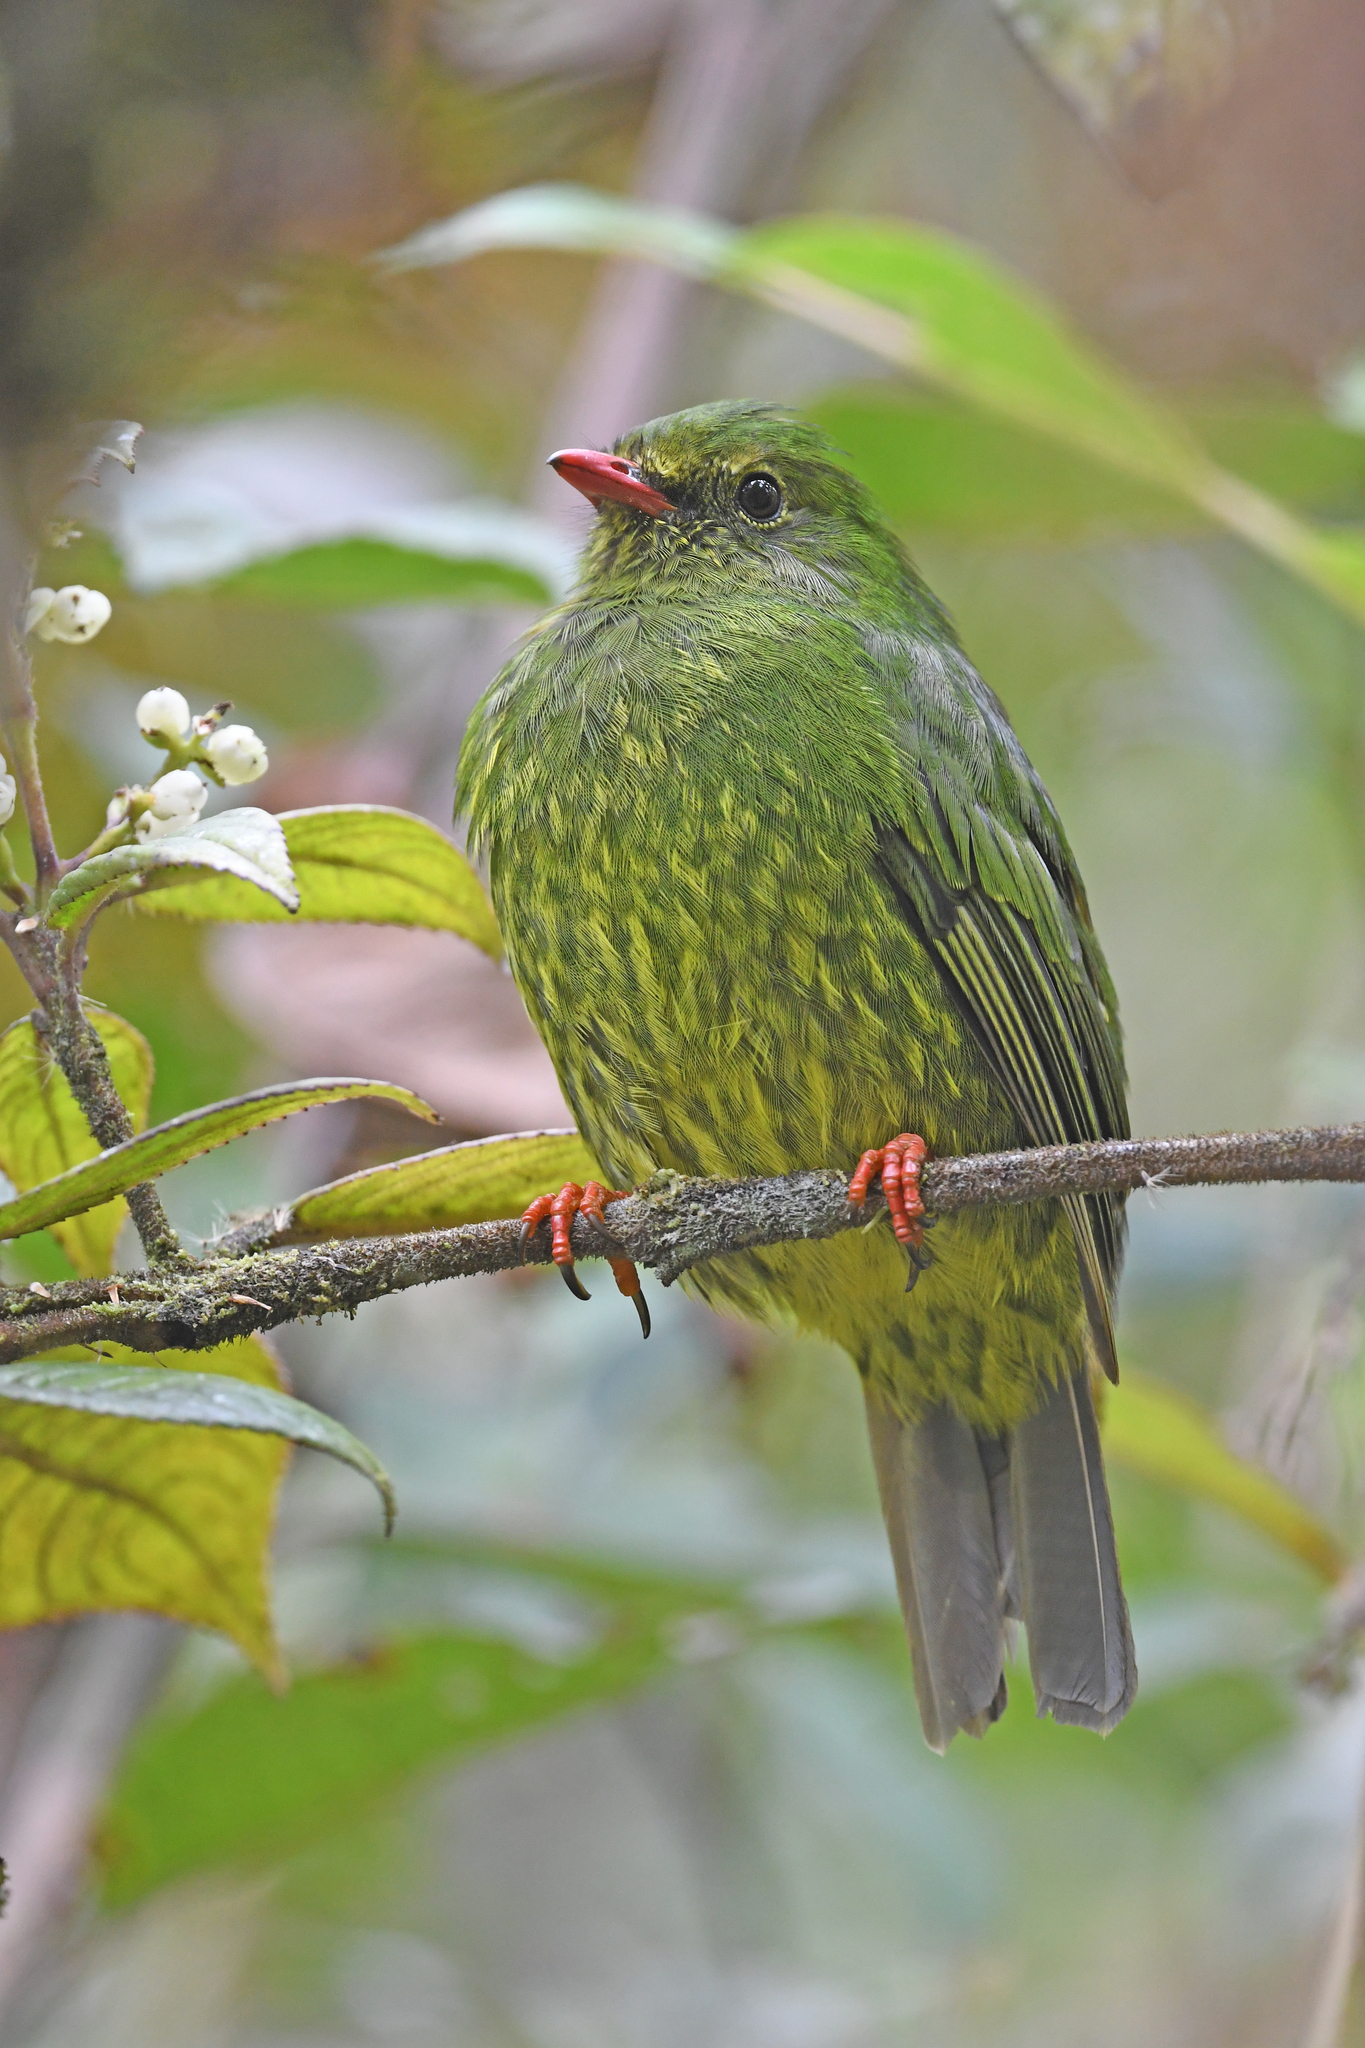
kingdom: Animalia
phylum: Chordata
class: Aves
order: Passeriformes
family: Cotingidae
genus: Pipreola
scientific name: Pipreola riefferii
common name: Green-and-black fruiteater
